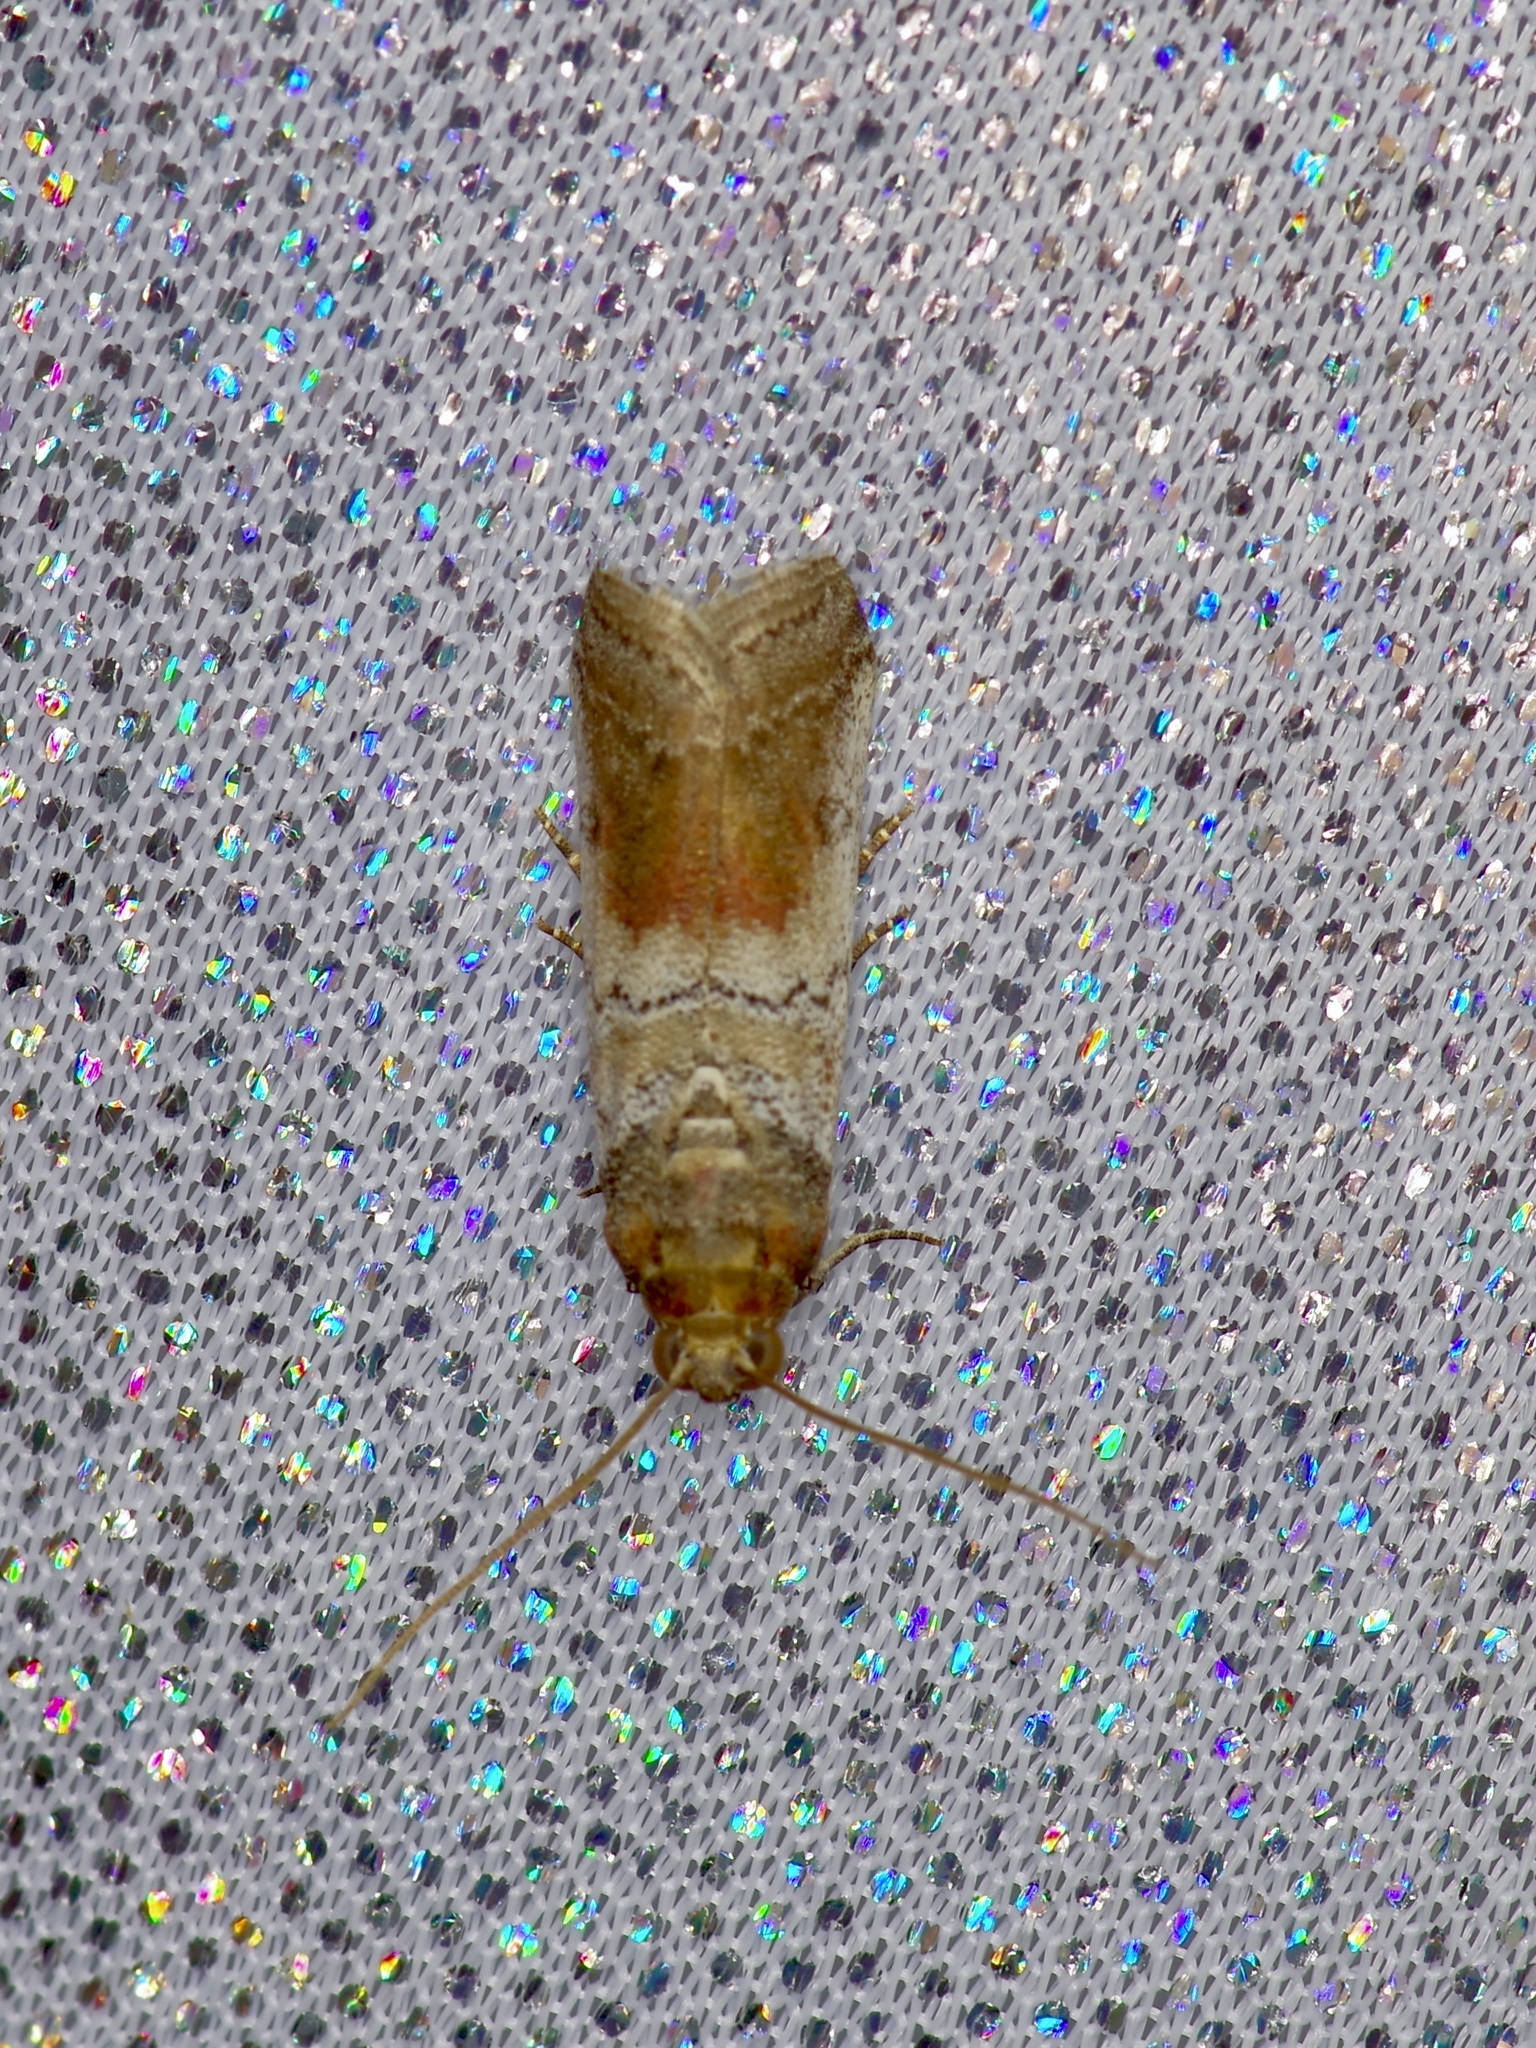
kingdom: Animalia
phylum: Arthropoda
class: Insecta
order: Lepidoptera
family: Pyralidae
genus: Chararica
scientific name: Chararica hystriculella
